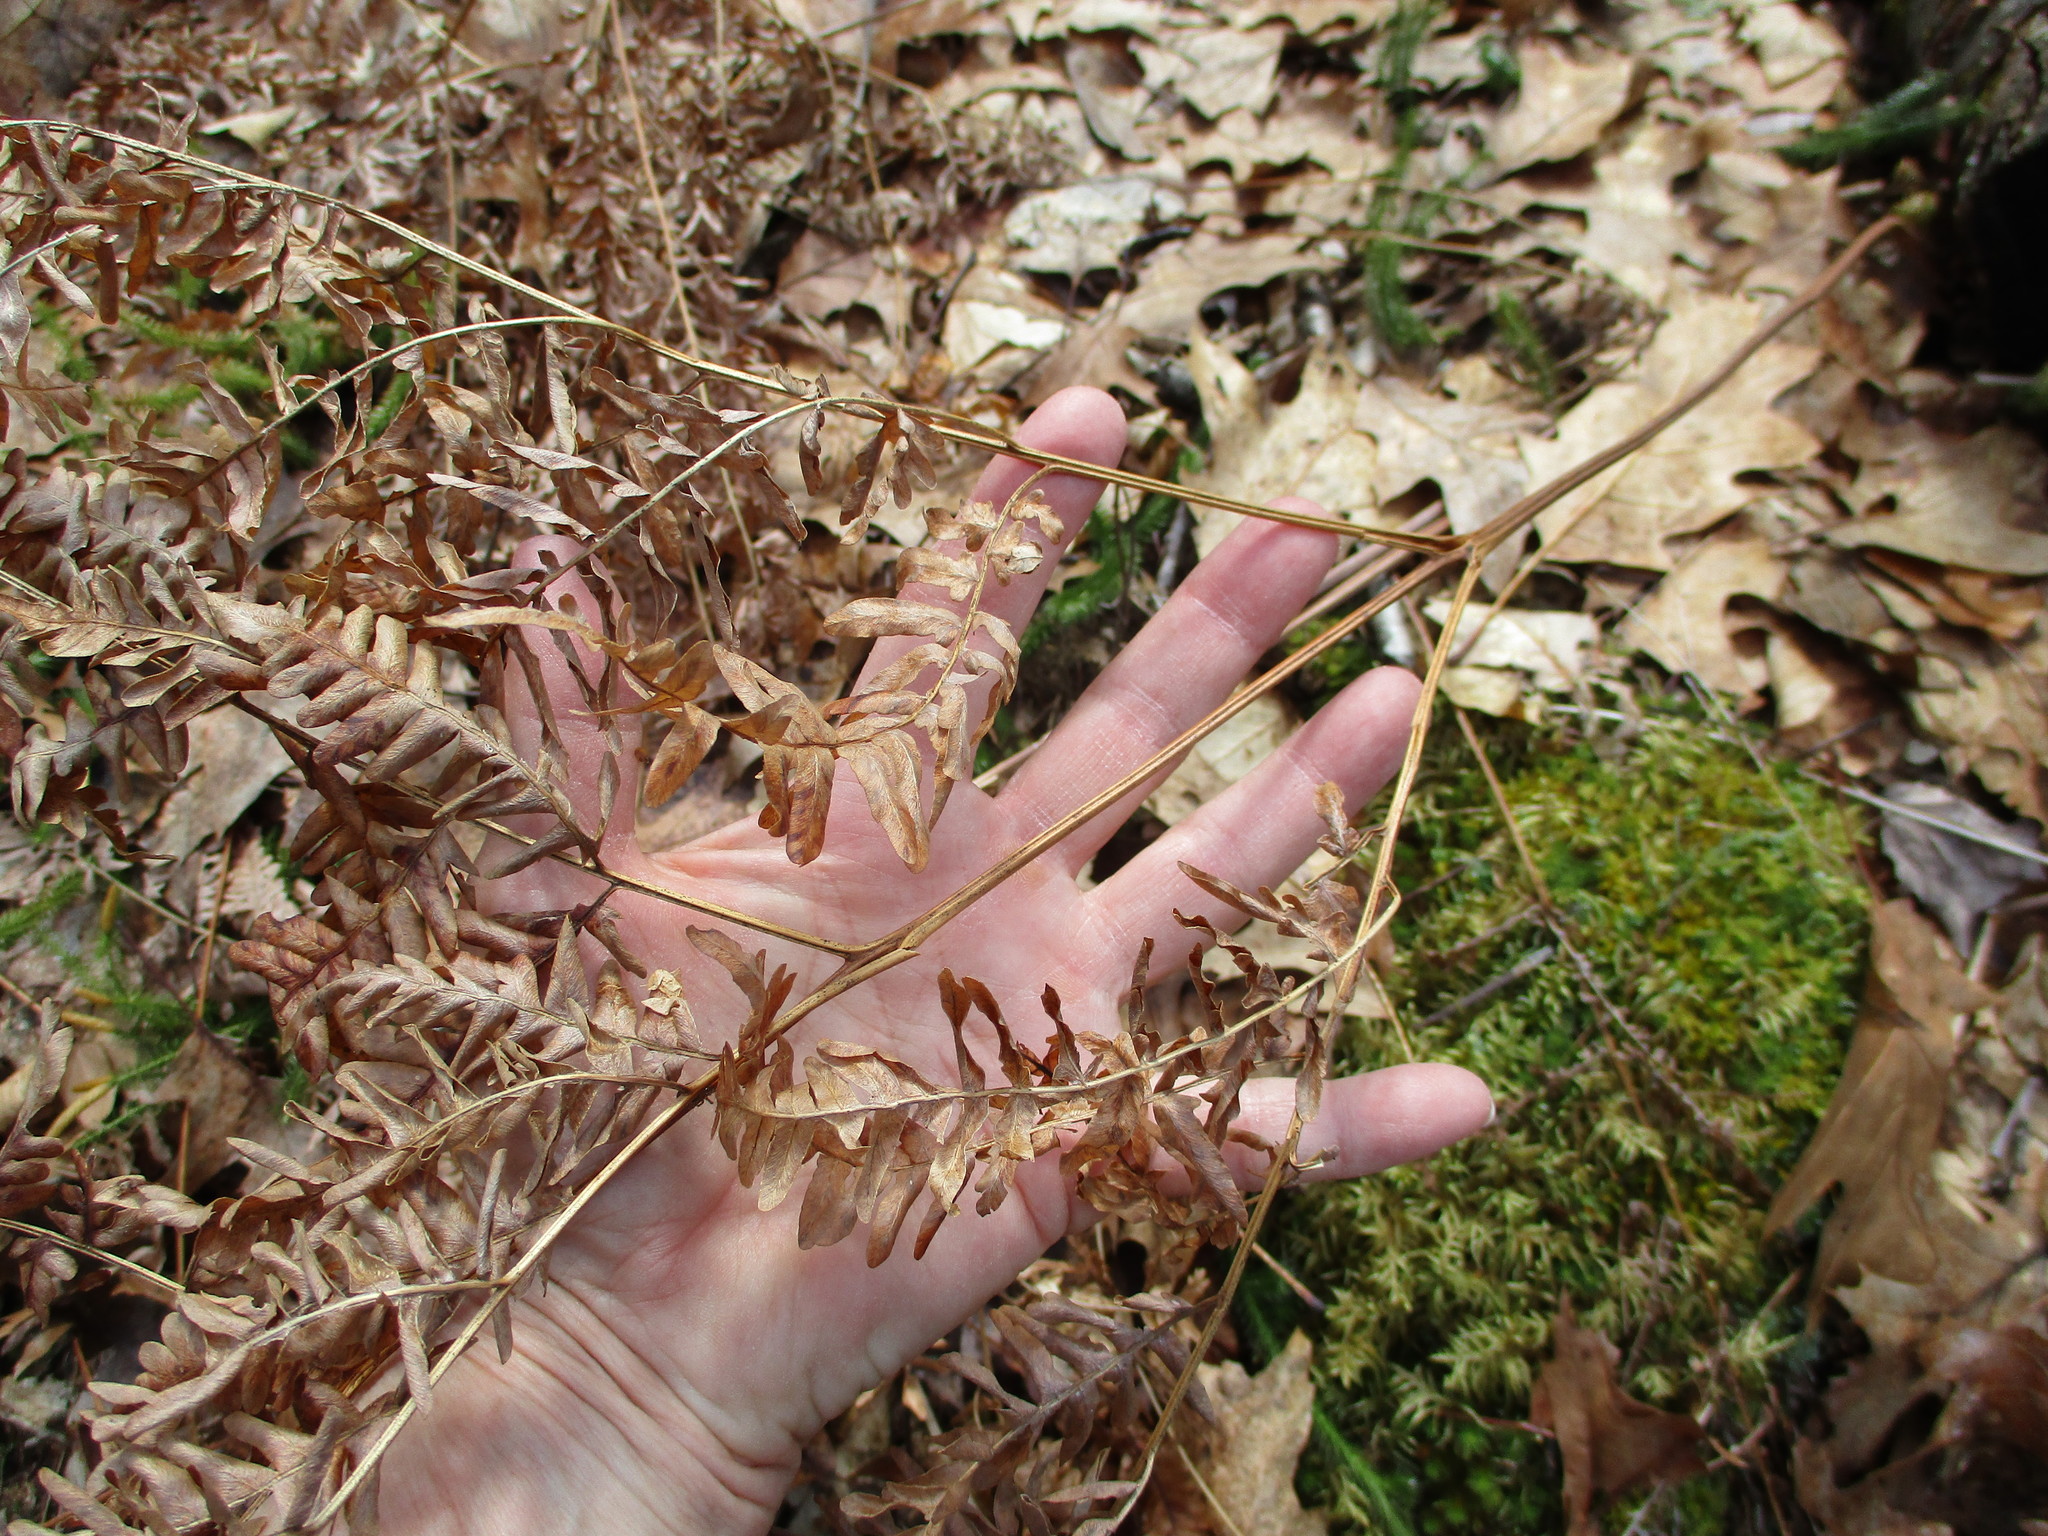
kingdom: Plantae
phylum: Tracheophyta
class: Polypodiopsida
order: Polypodiales
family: Dennstaedtiaceae
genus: Pteridium
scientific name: Pteridium aquilinum
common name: Bracken
